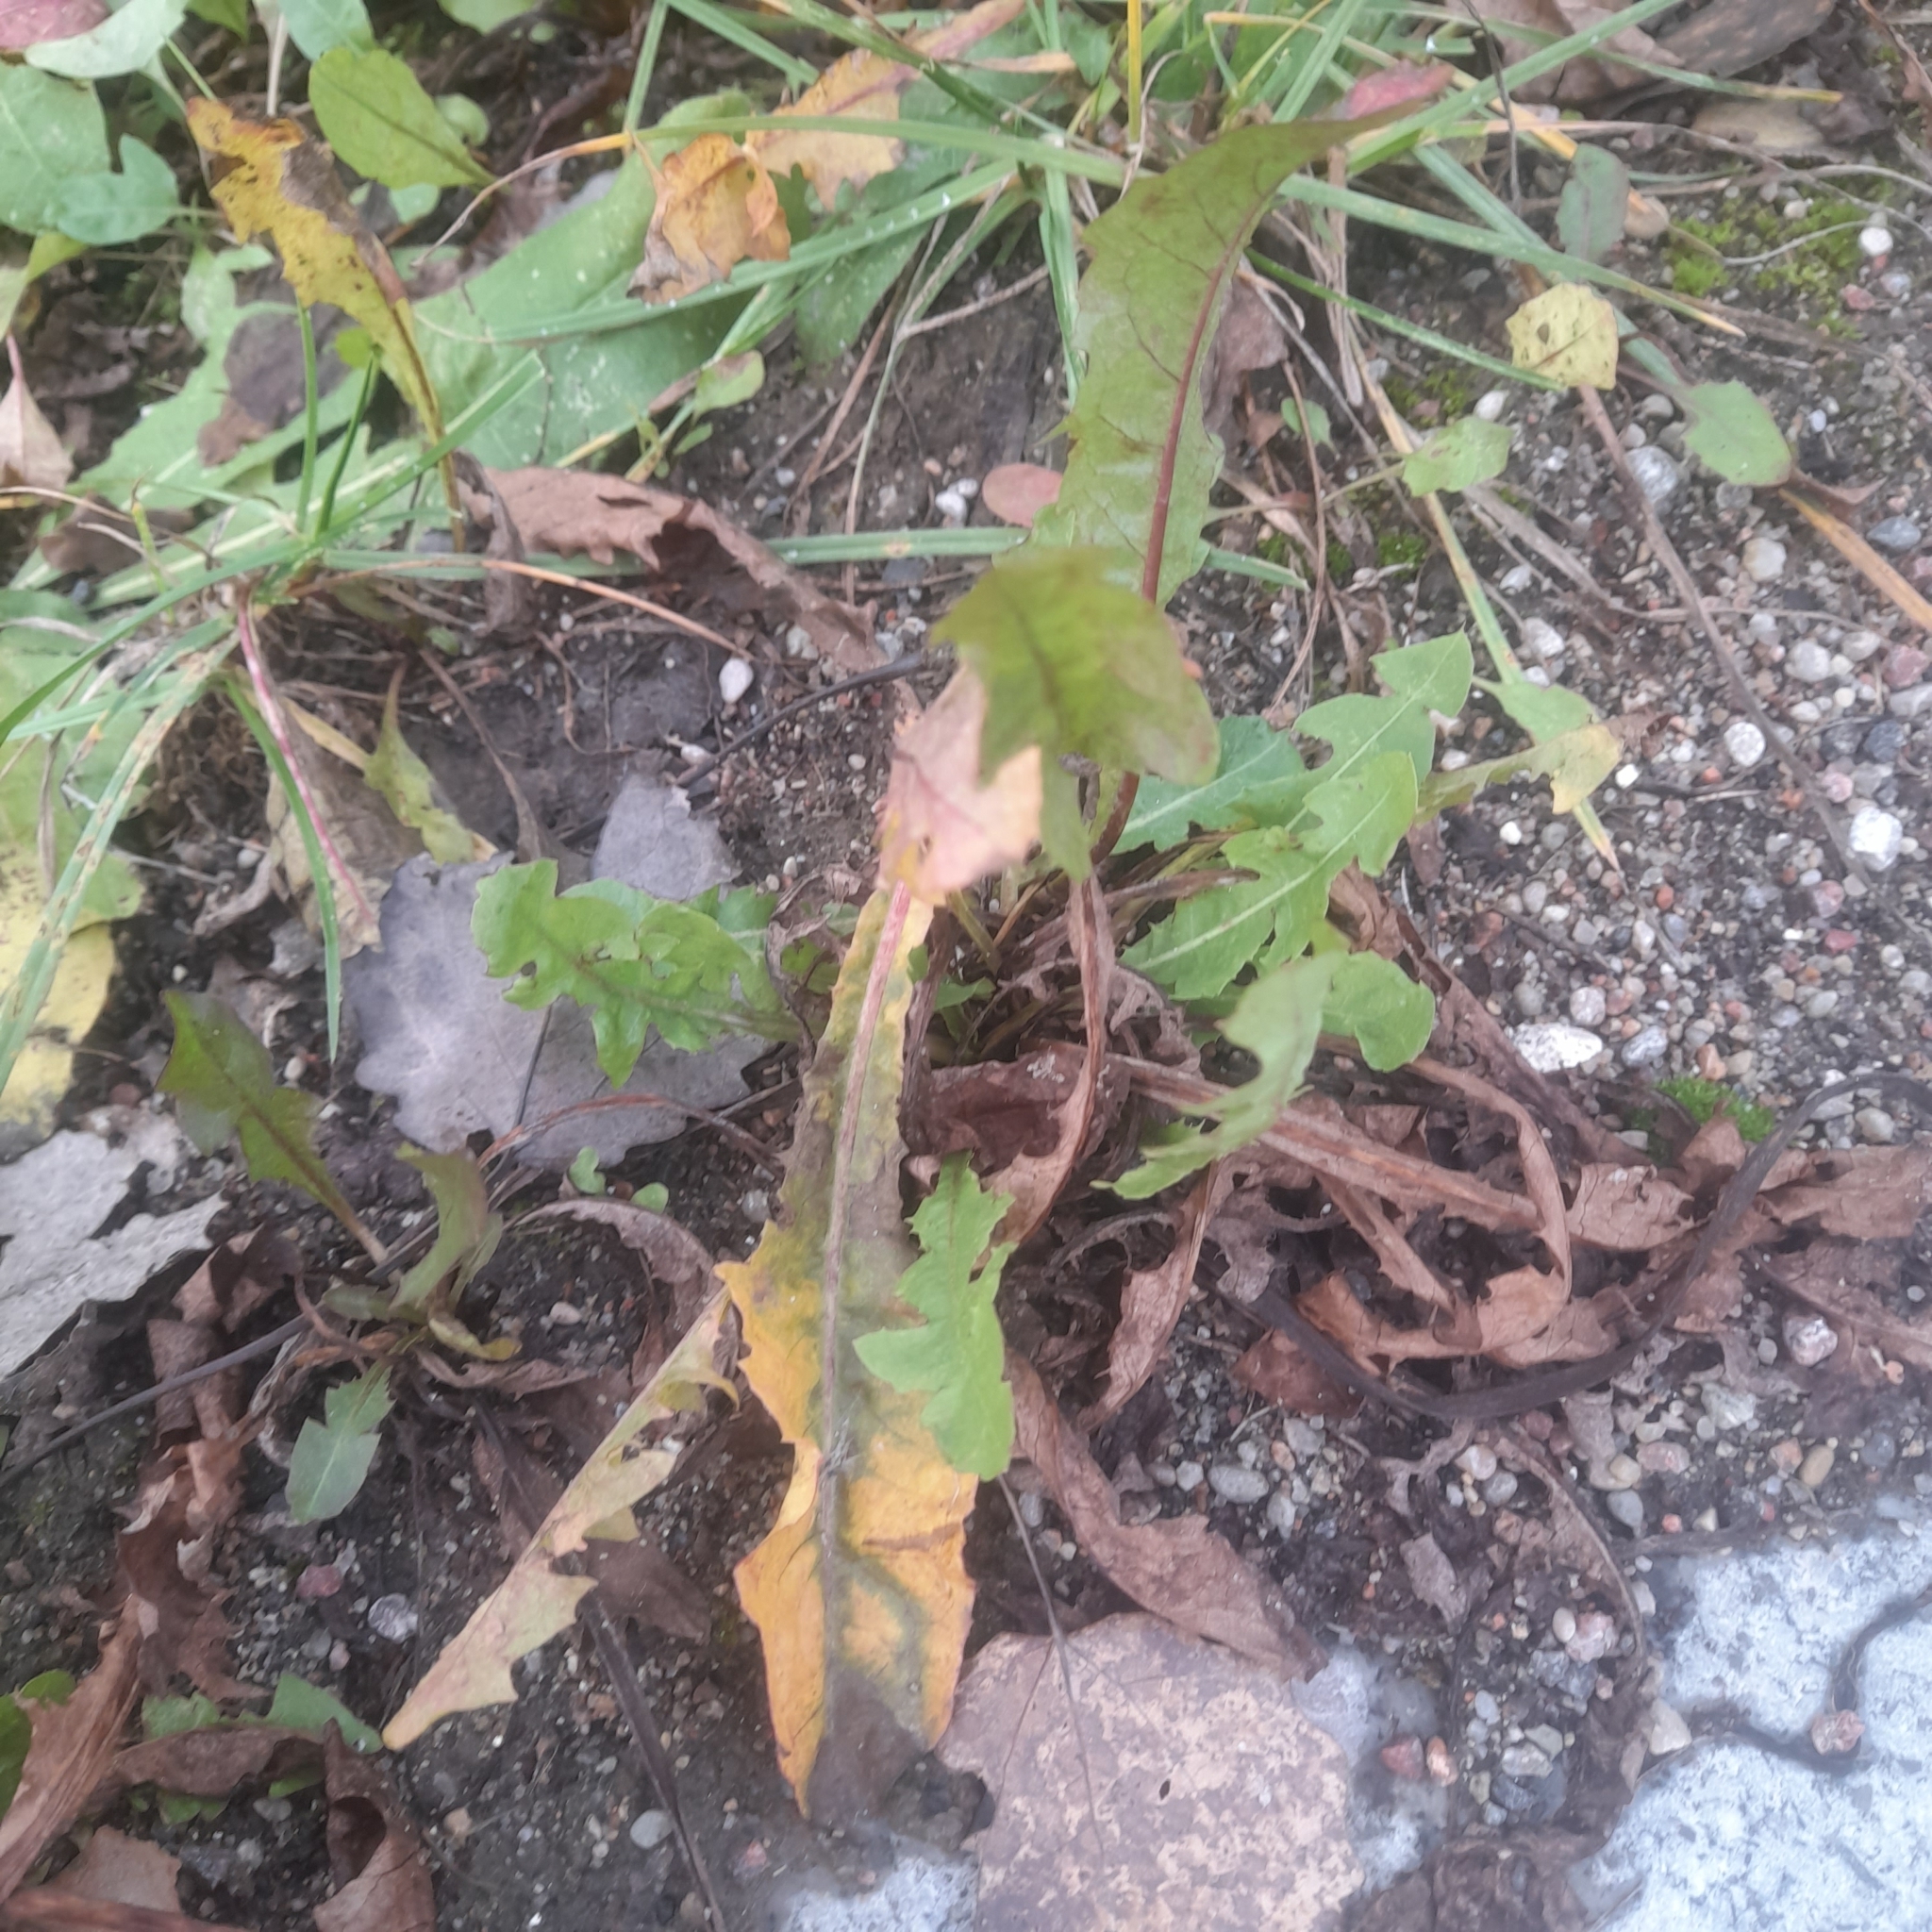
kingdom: Plantae
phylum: Tracheophyta
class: Magnoliopsida
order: Asterales
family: Asteraceae
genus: Taraxacum
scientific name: Taraxacum officinale
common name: Common dandelion
